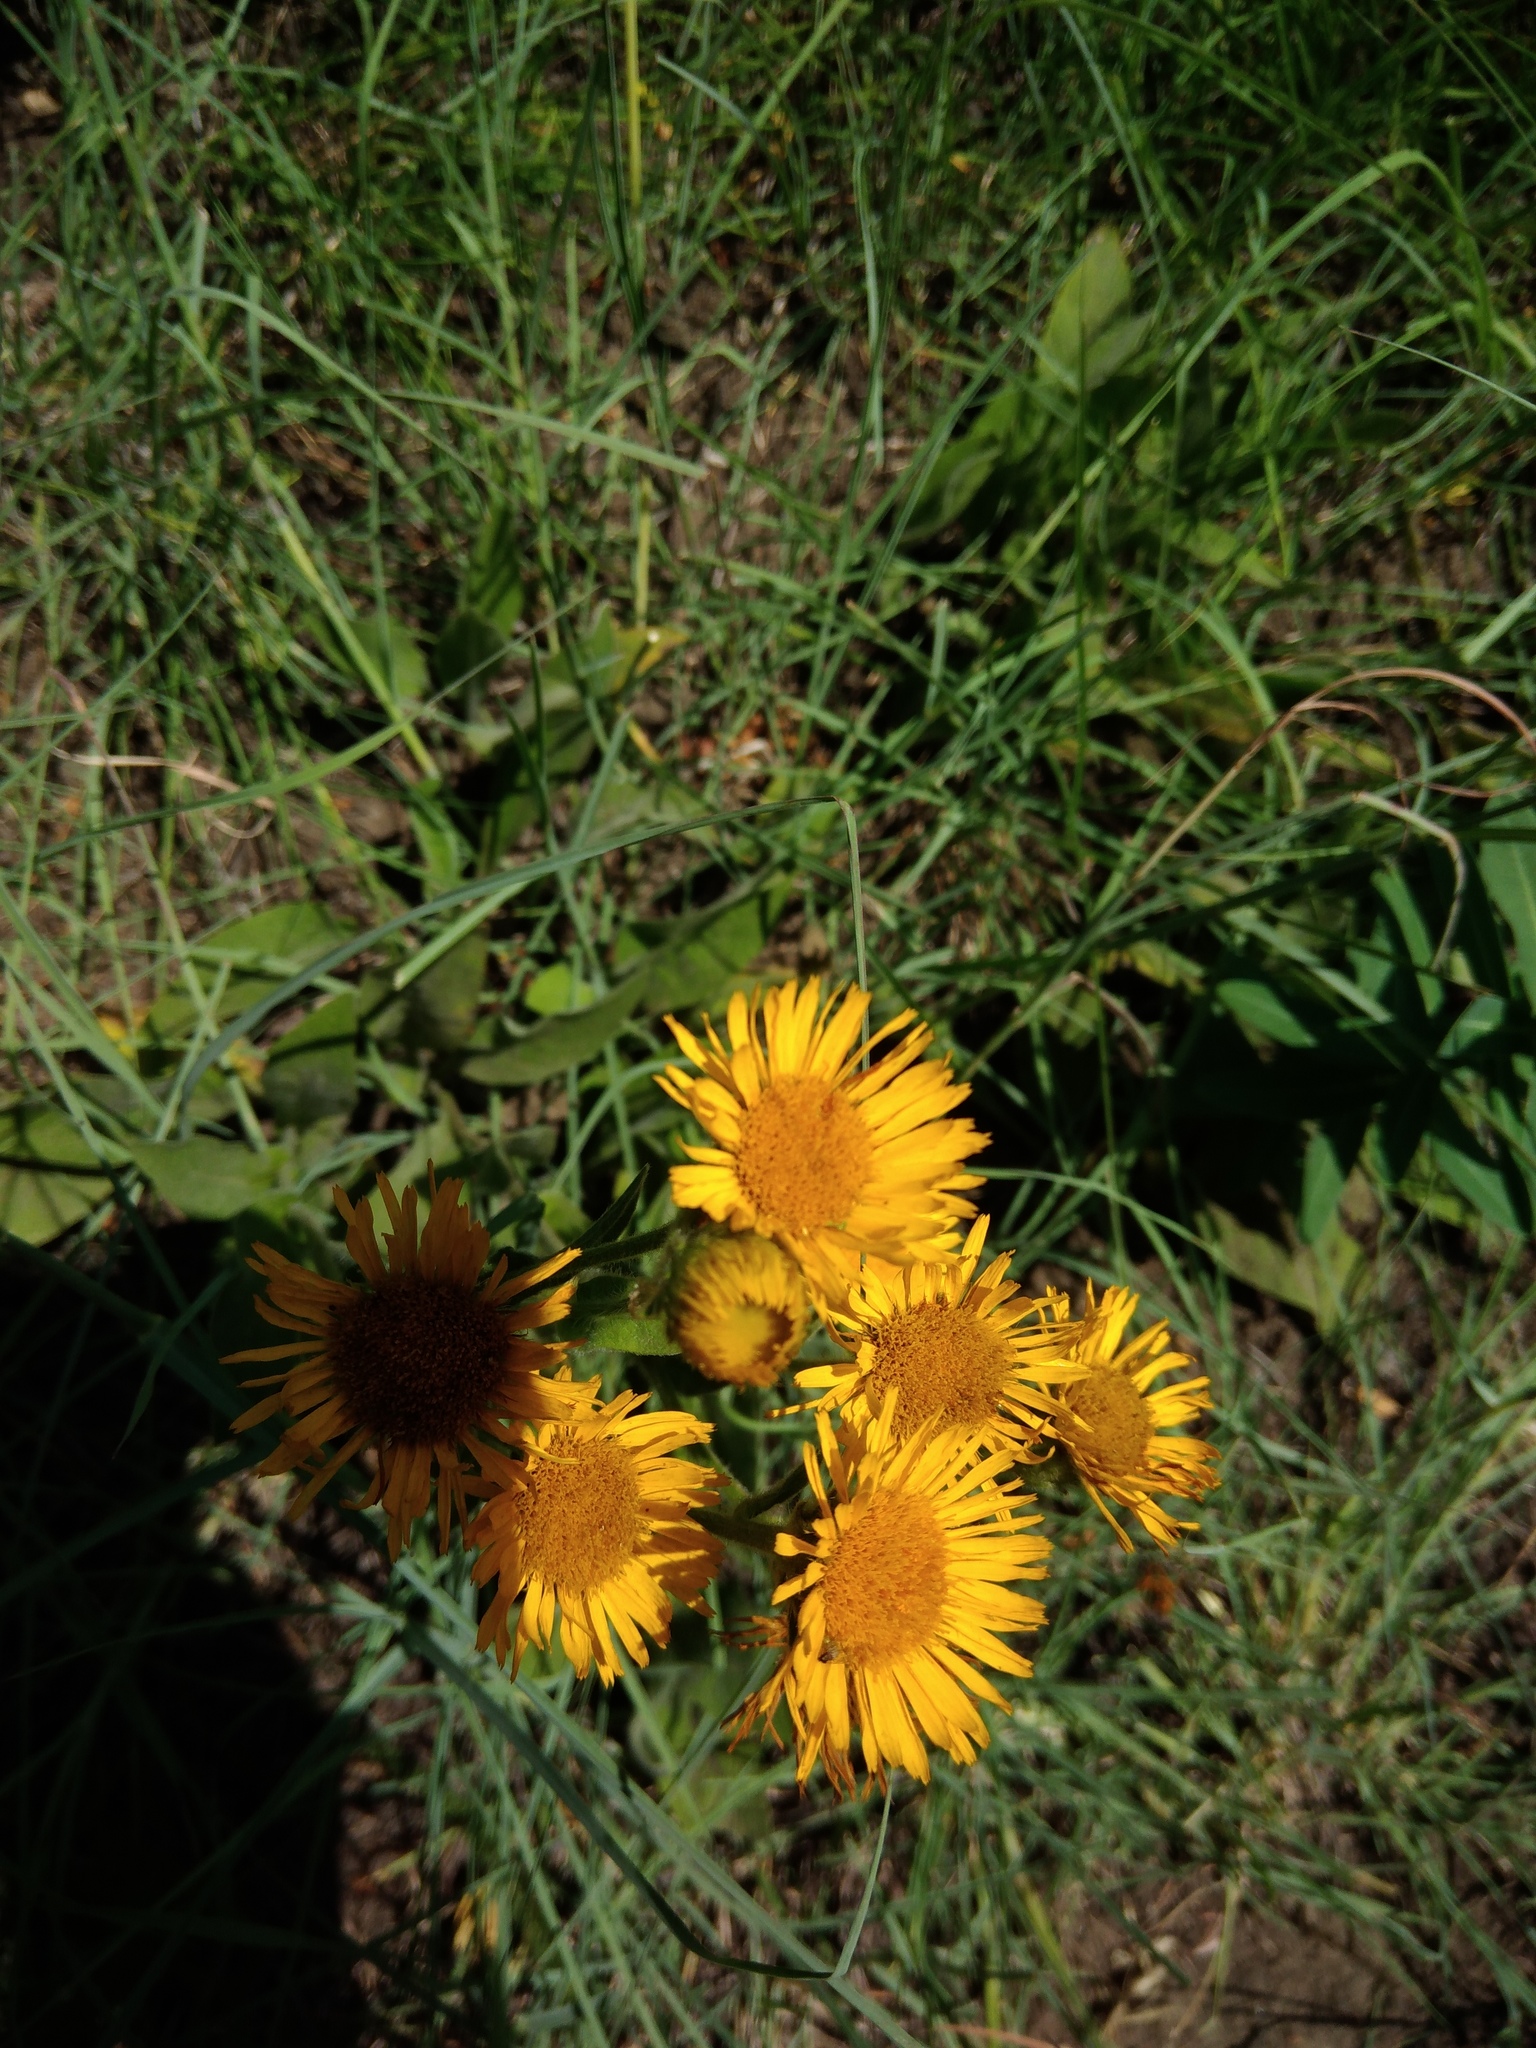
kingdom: Plantae
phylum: Tracheophyta
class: Magnoliopsida
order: Asterales
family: Asteraceae
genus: Pentanema
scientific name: Pentanema oculus-christi
